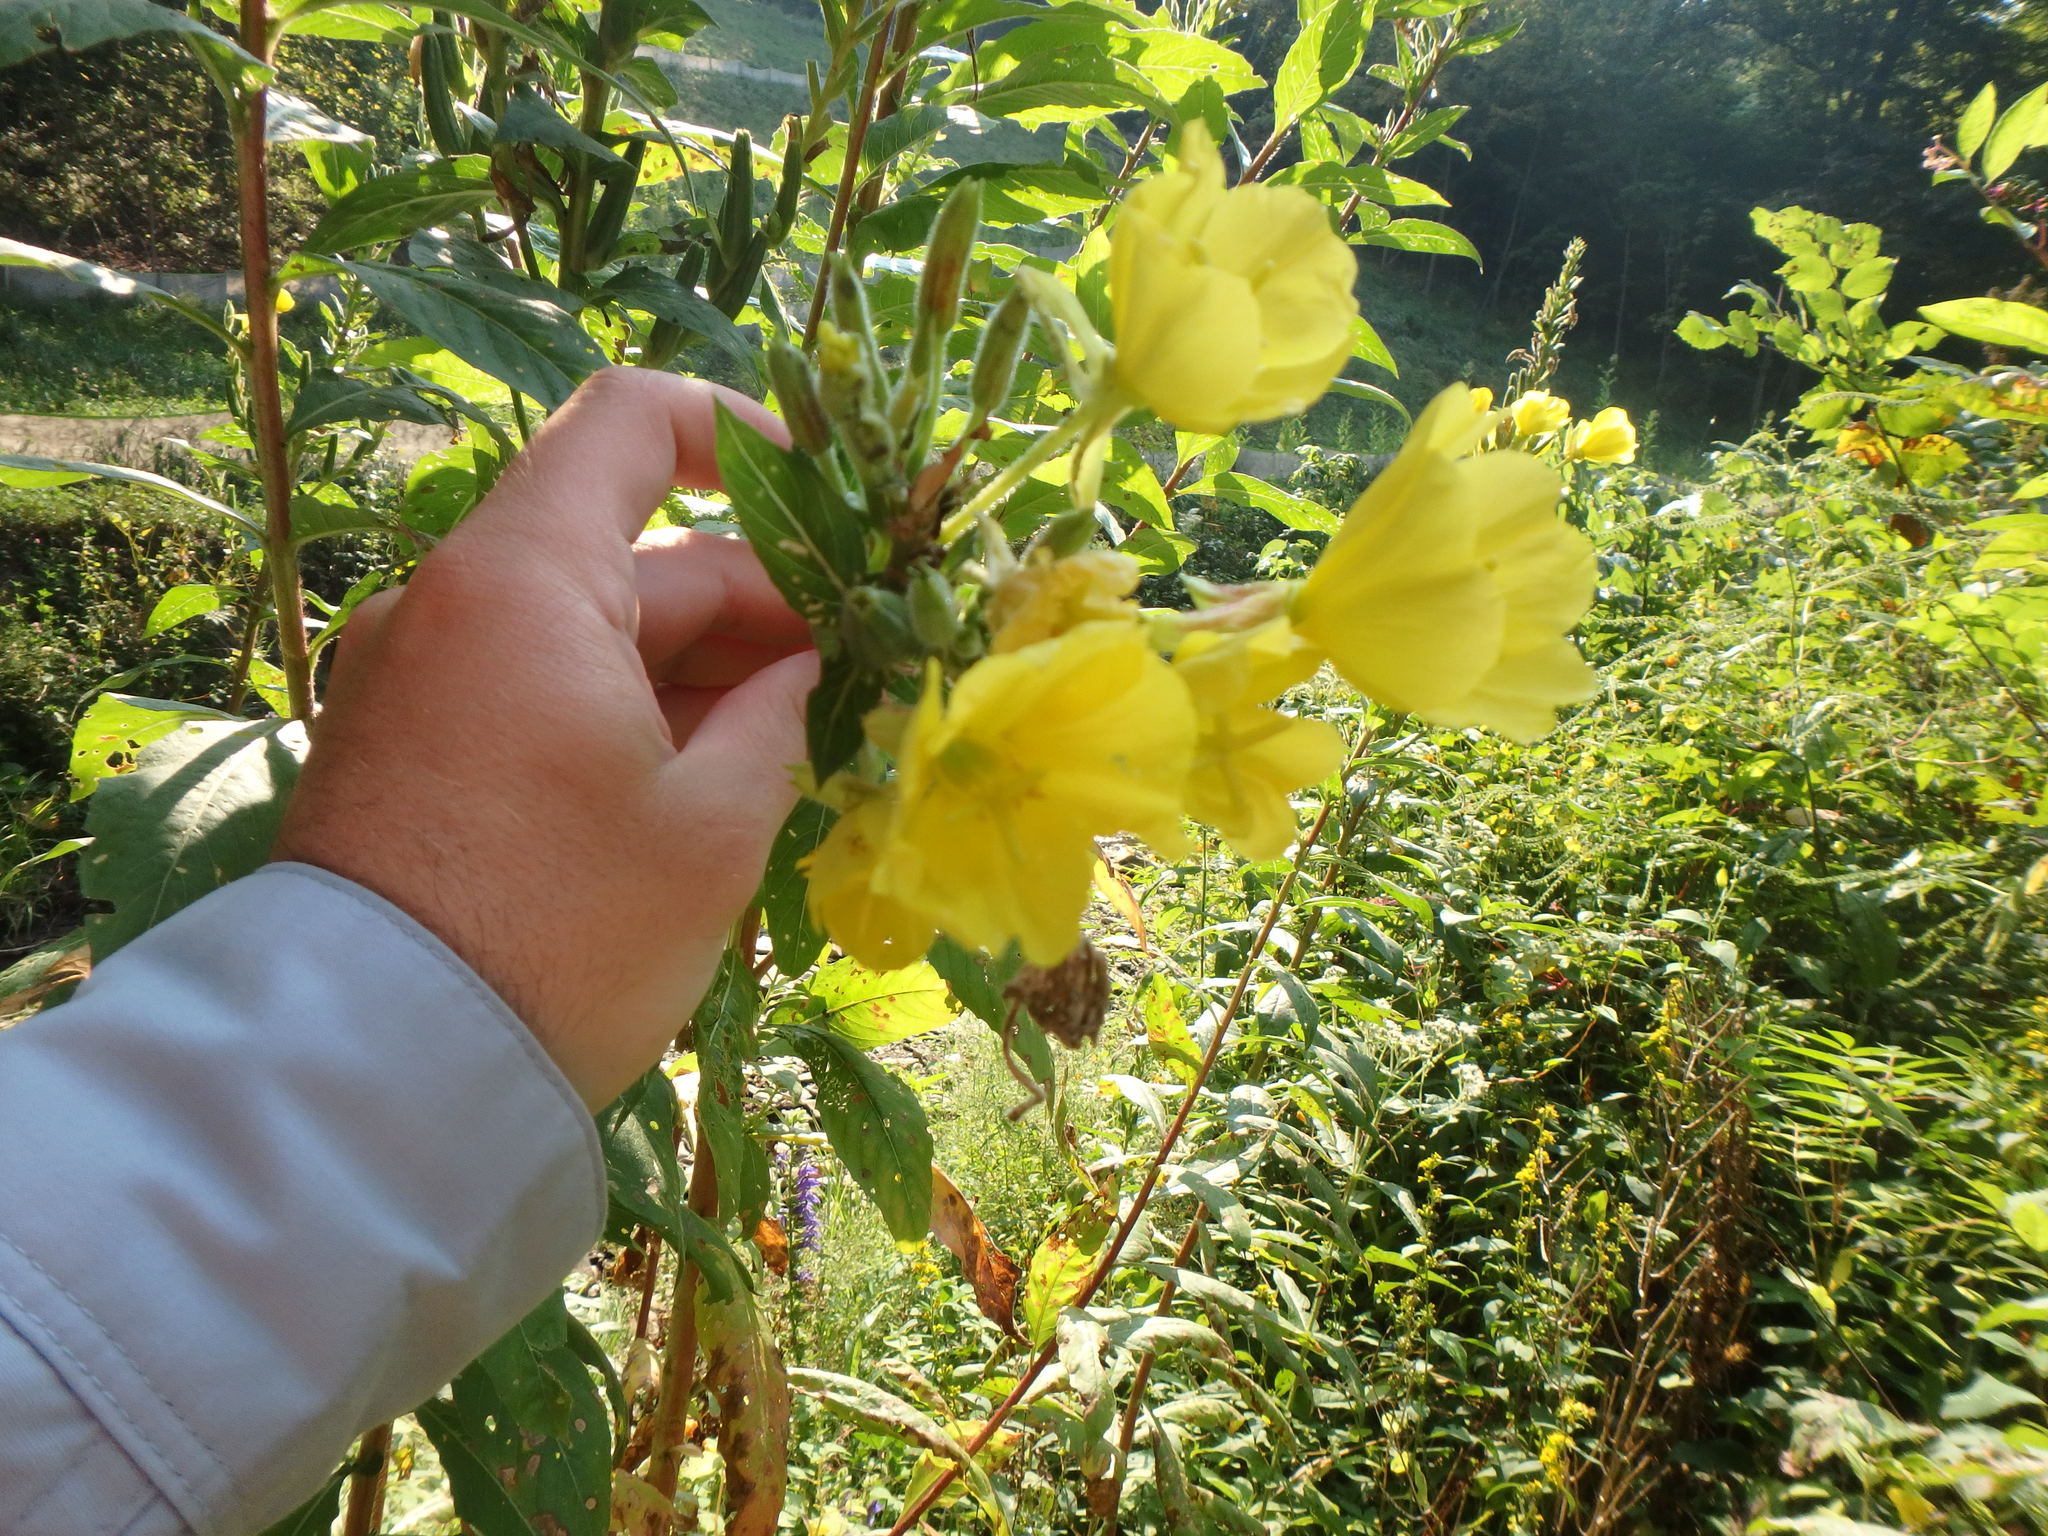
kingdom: Plantae
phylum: Tracheophyta
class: Magnoliopsida
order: Myrtales
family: Onagraceae
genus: Oenothera
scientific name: Oenothera biennis
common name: Common evening-primrose
